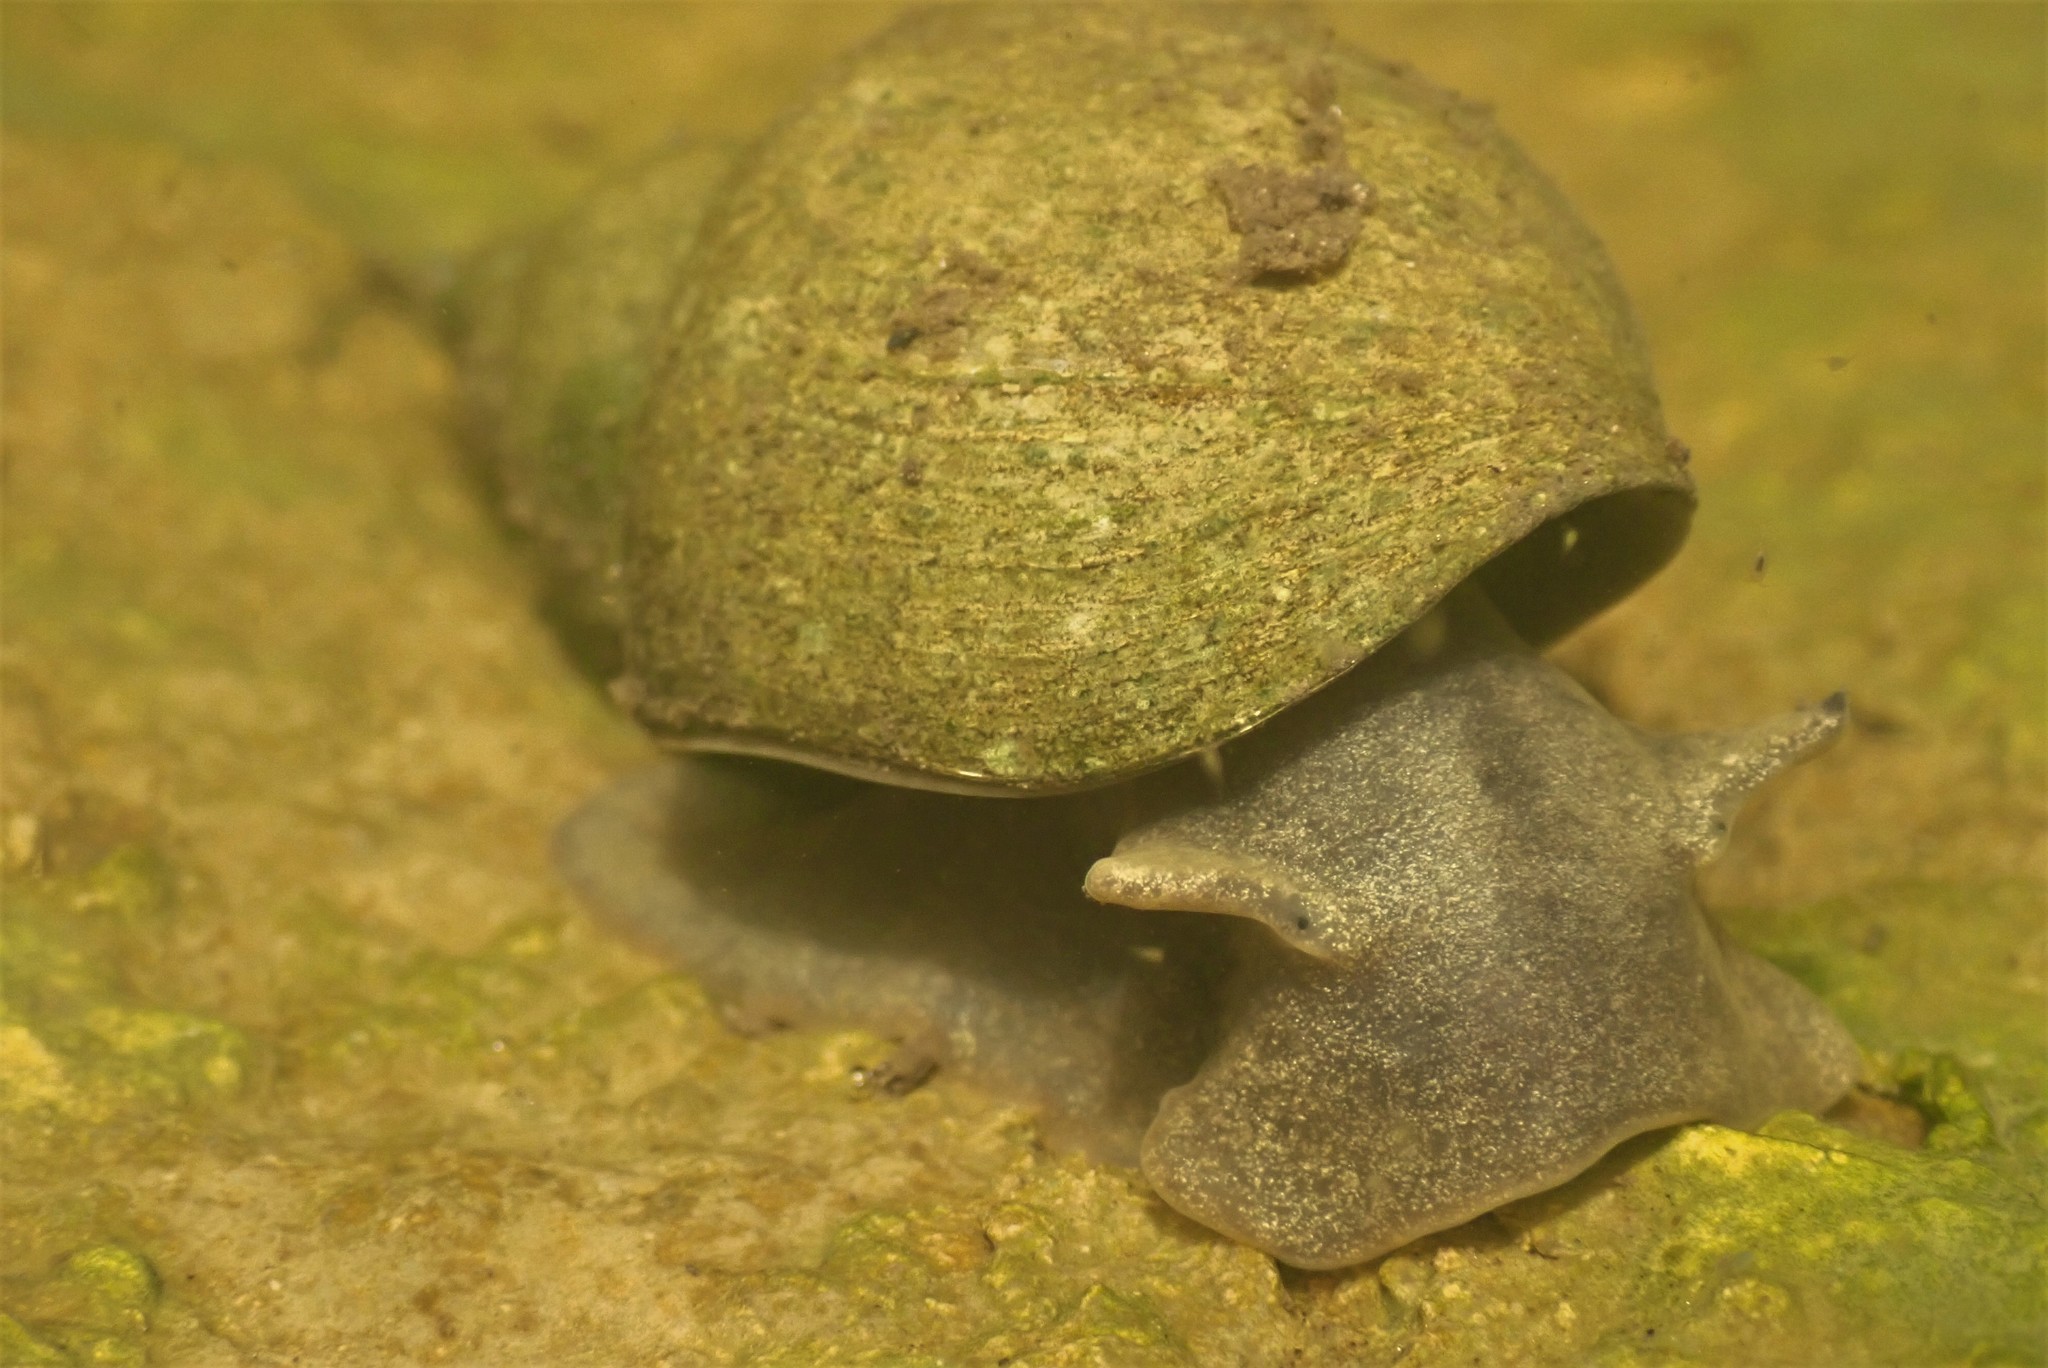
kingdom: Animalia
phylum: Mollusca
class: Gastropoda
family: Lymnaeidae
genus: Lymnaea
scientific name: Lymnaea stagnalis
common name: Great pond snail
